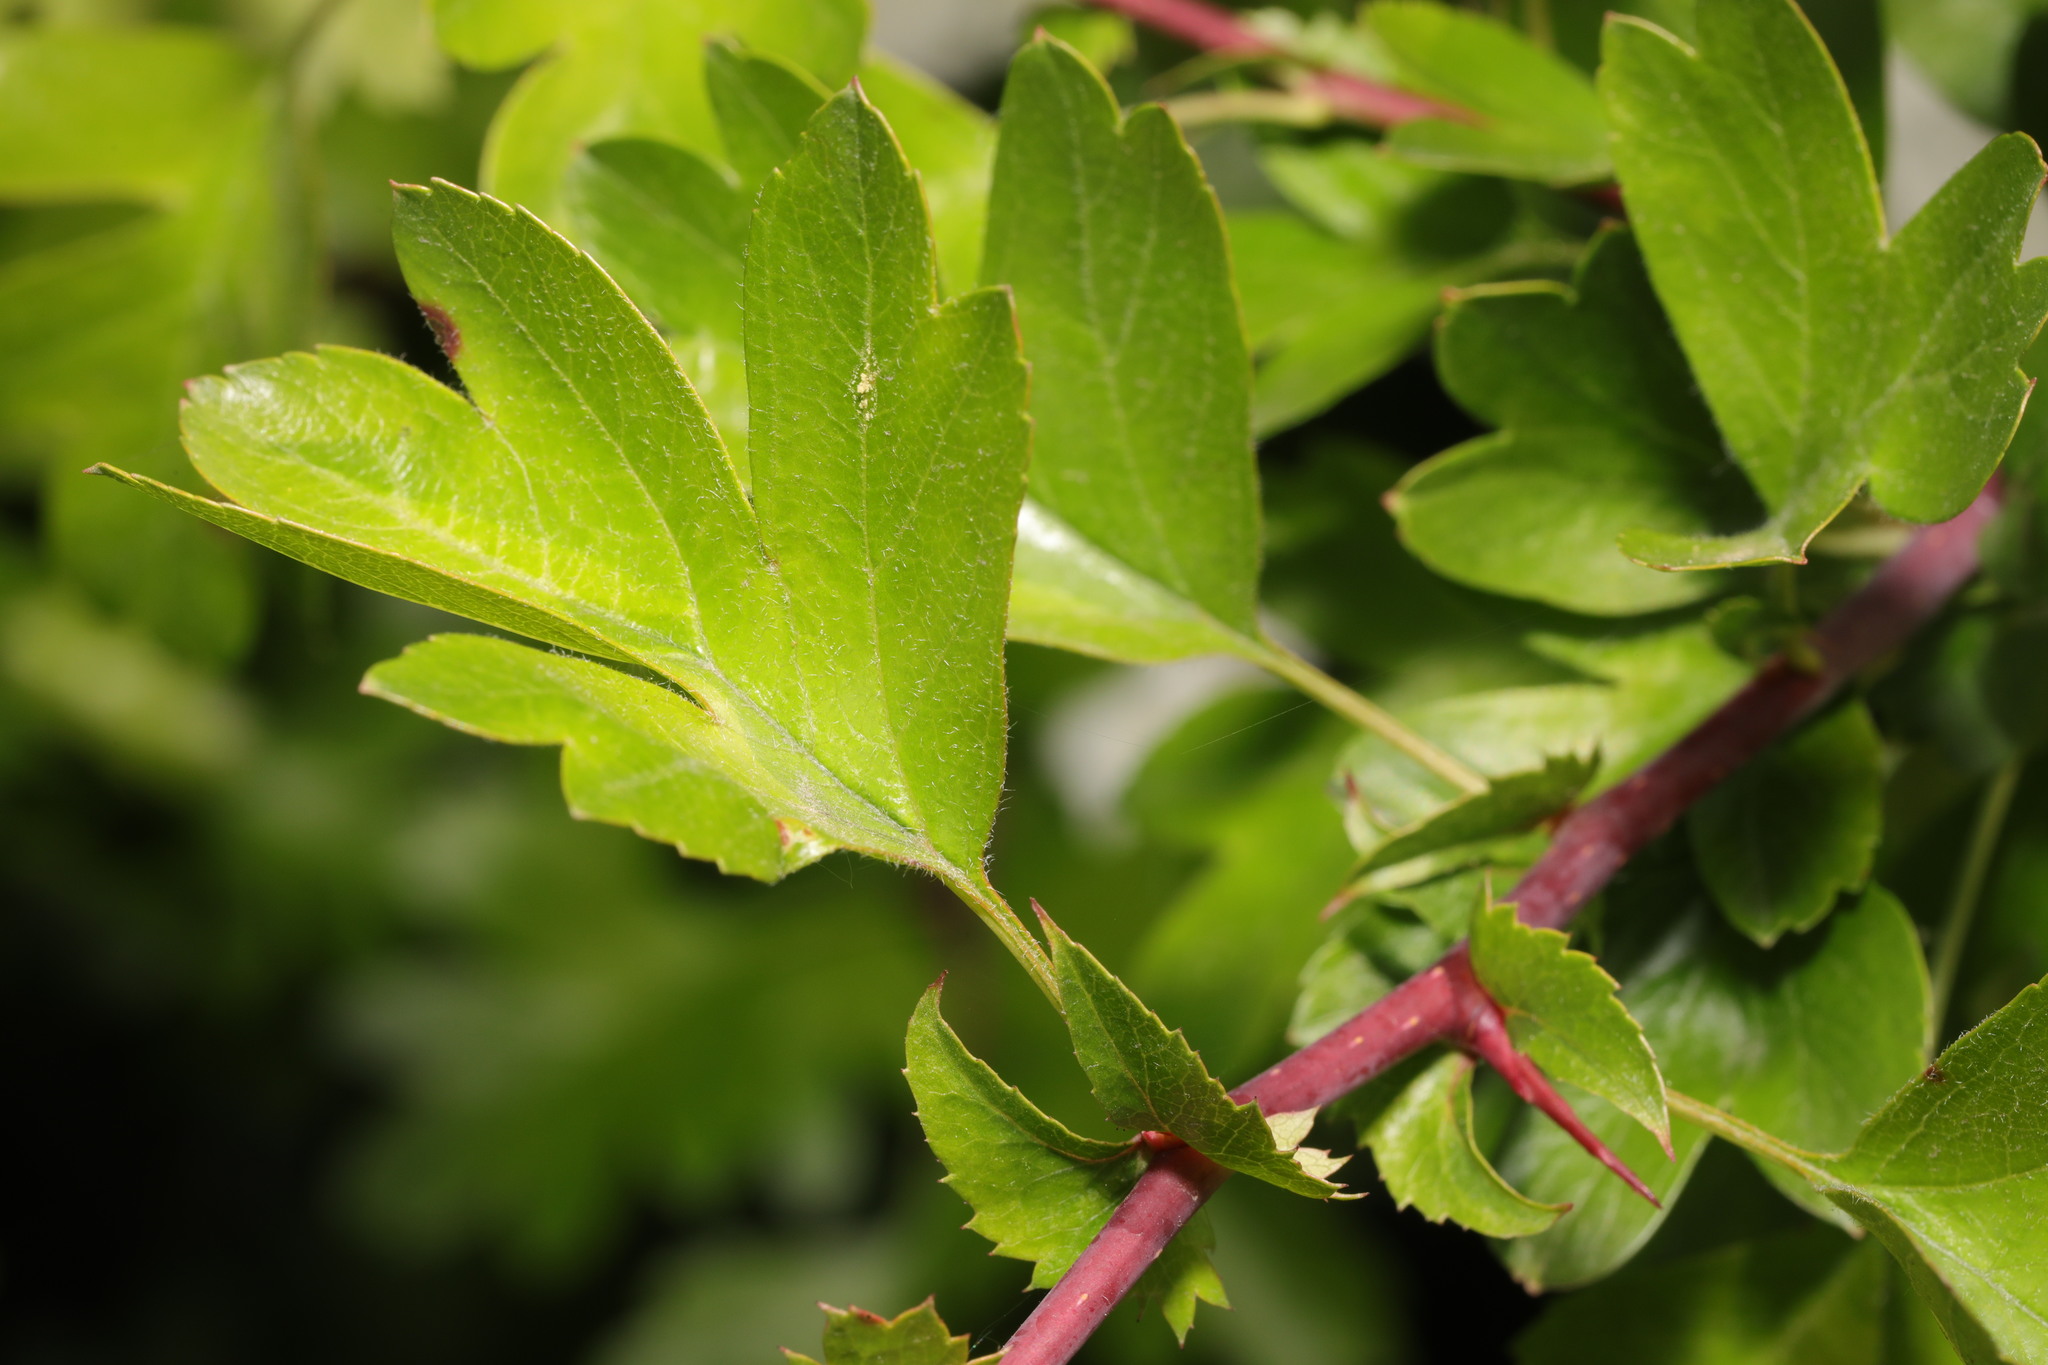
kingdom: Plantae
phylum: Tracheophyta
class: Magnoliopsida
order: Rosales
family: Rosaceae
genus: Crataegus
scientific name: Crataegus monogyna
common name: Hawthorn
